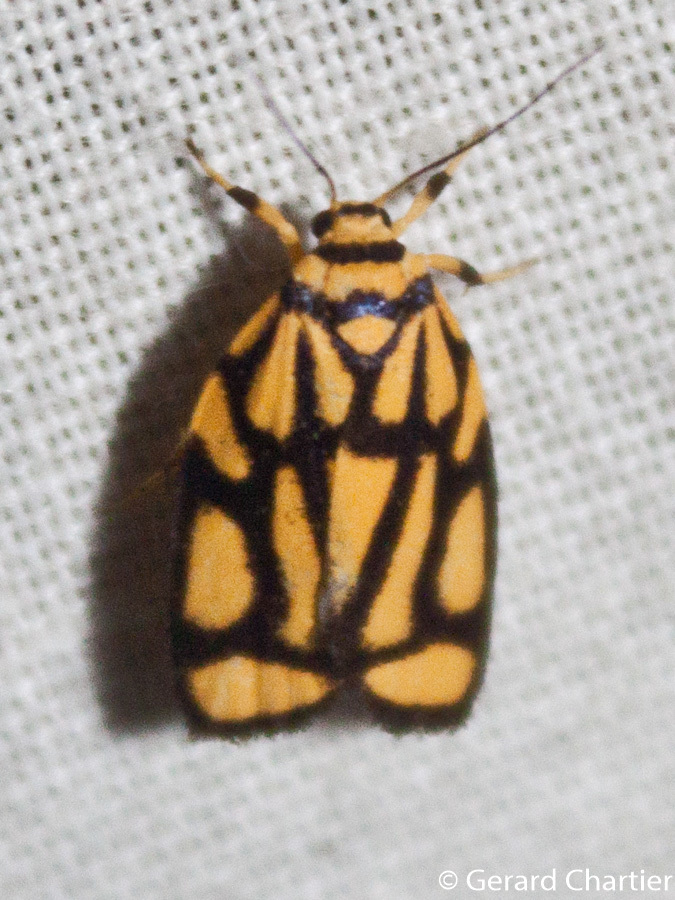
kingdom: Animalia
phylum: Arthropoda
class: Insecta
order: Lepidoptera
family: Erebidae
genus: Darantasia
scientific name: Darantasia cuneiplena
